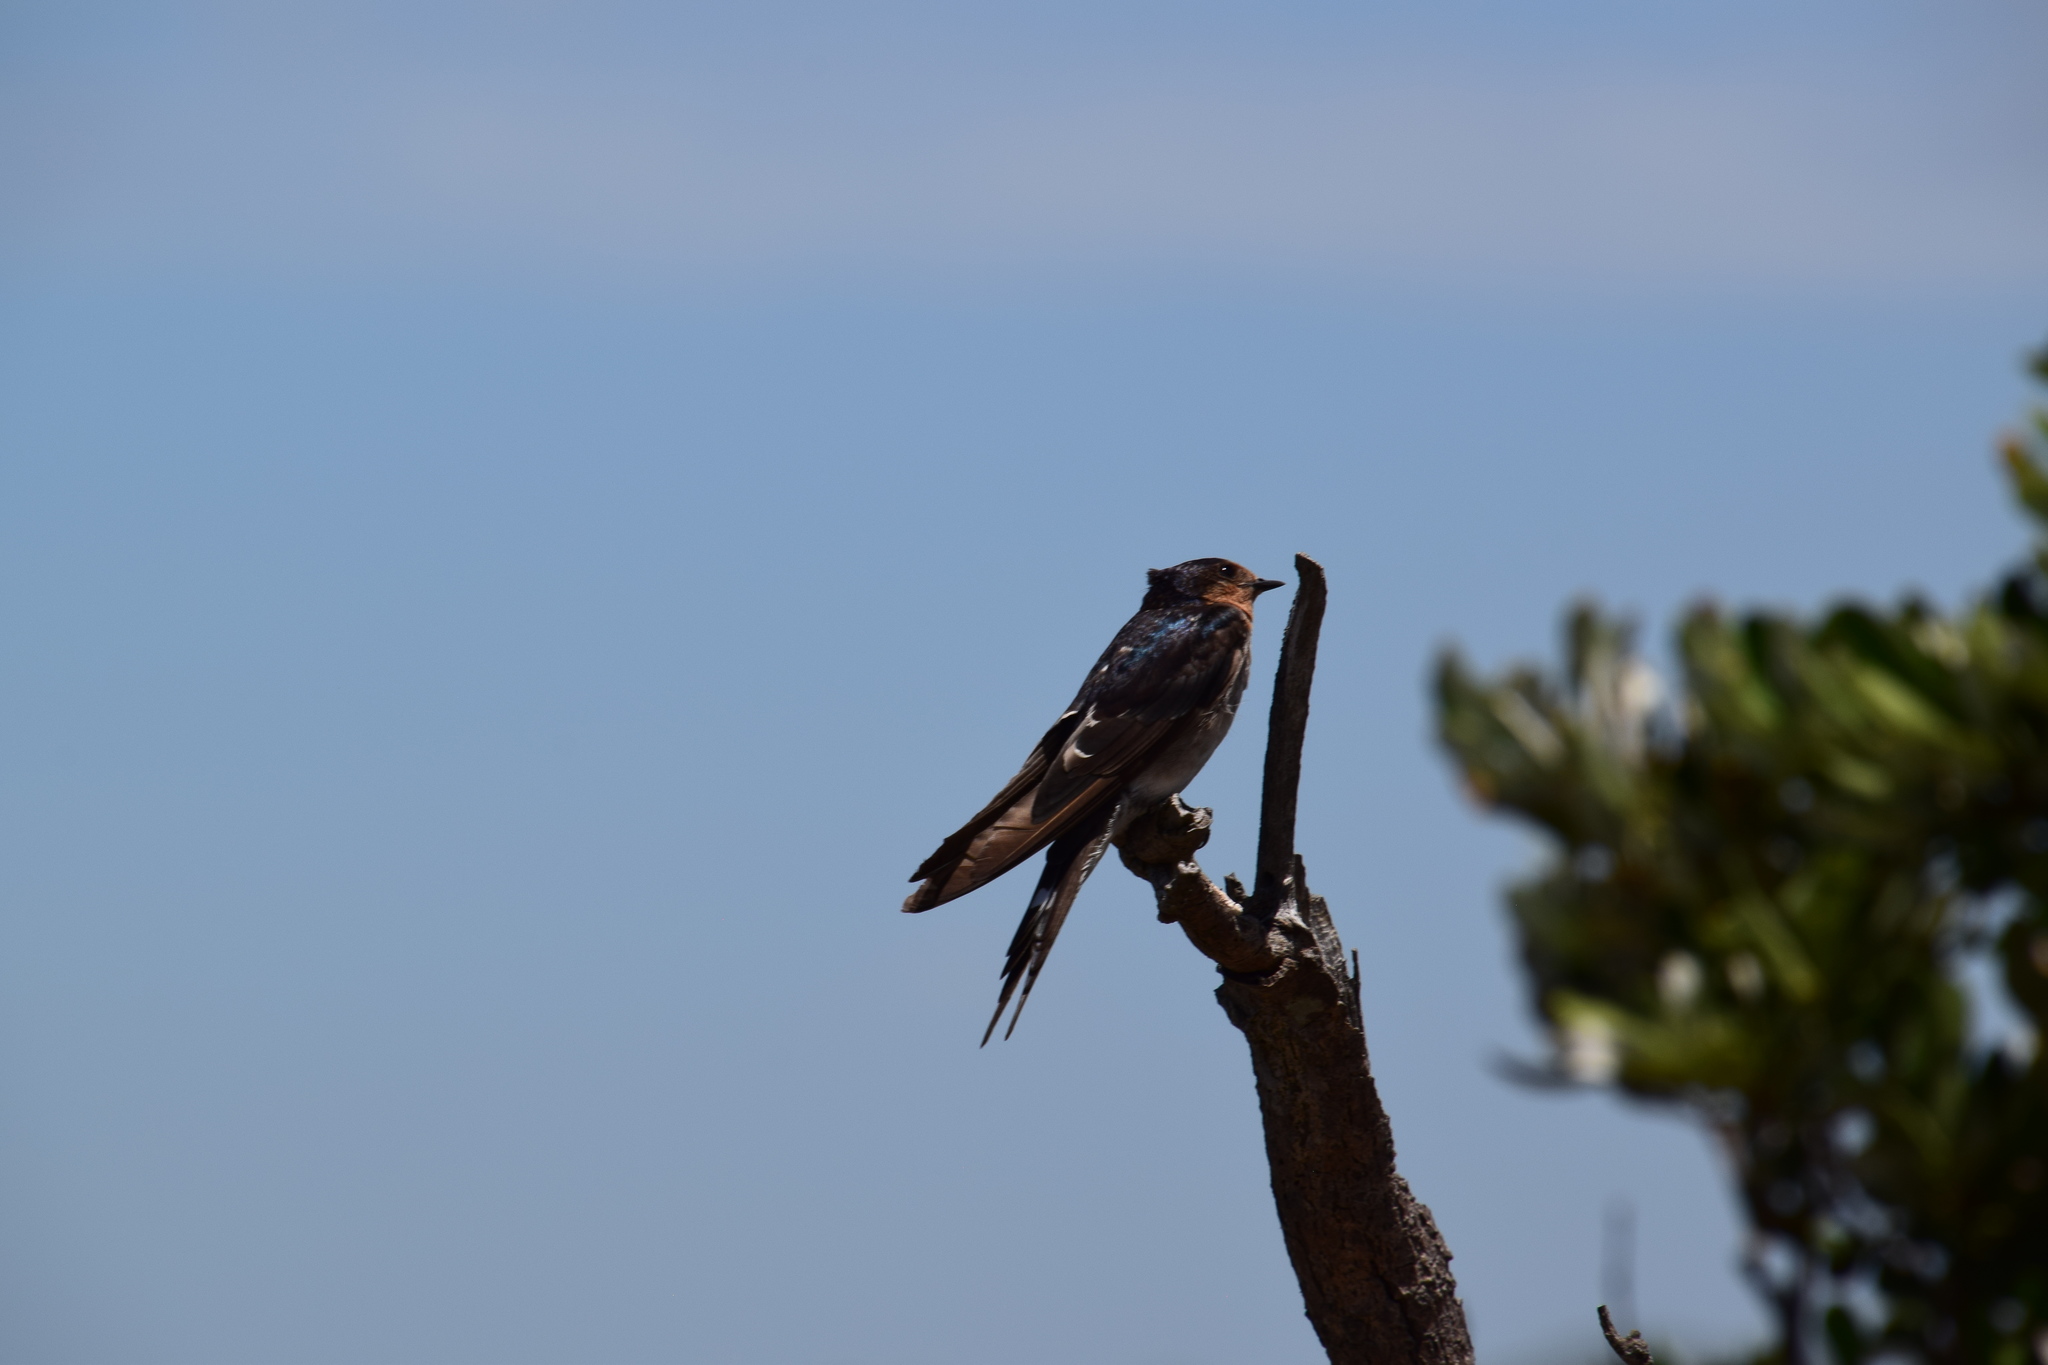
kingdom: Animalia
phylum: Chordata
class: Aves
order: Passeriformes
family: Hirundinidae
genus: Hirundo
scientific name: Hirundo neoxena
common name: Welcome swallow
